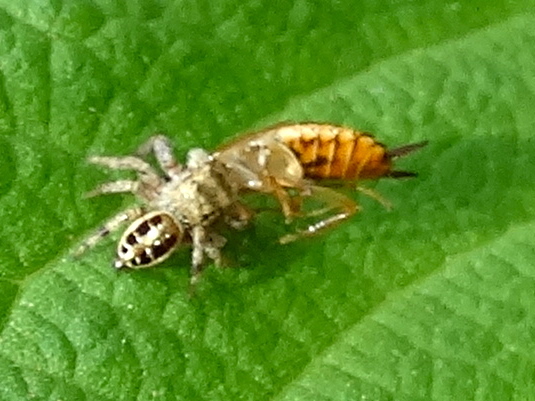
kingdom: Animalia
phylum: Arthropoda
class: Arachnida
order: Araneae
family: Salticidae
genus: Paraphidippus
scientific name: Paraphidippus
